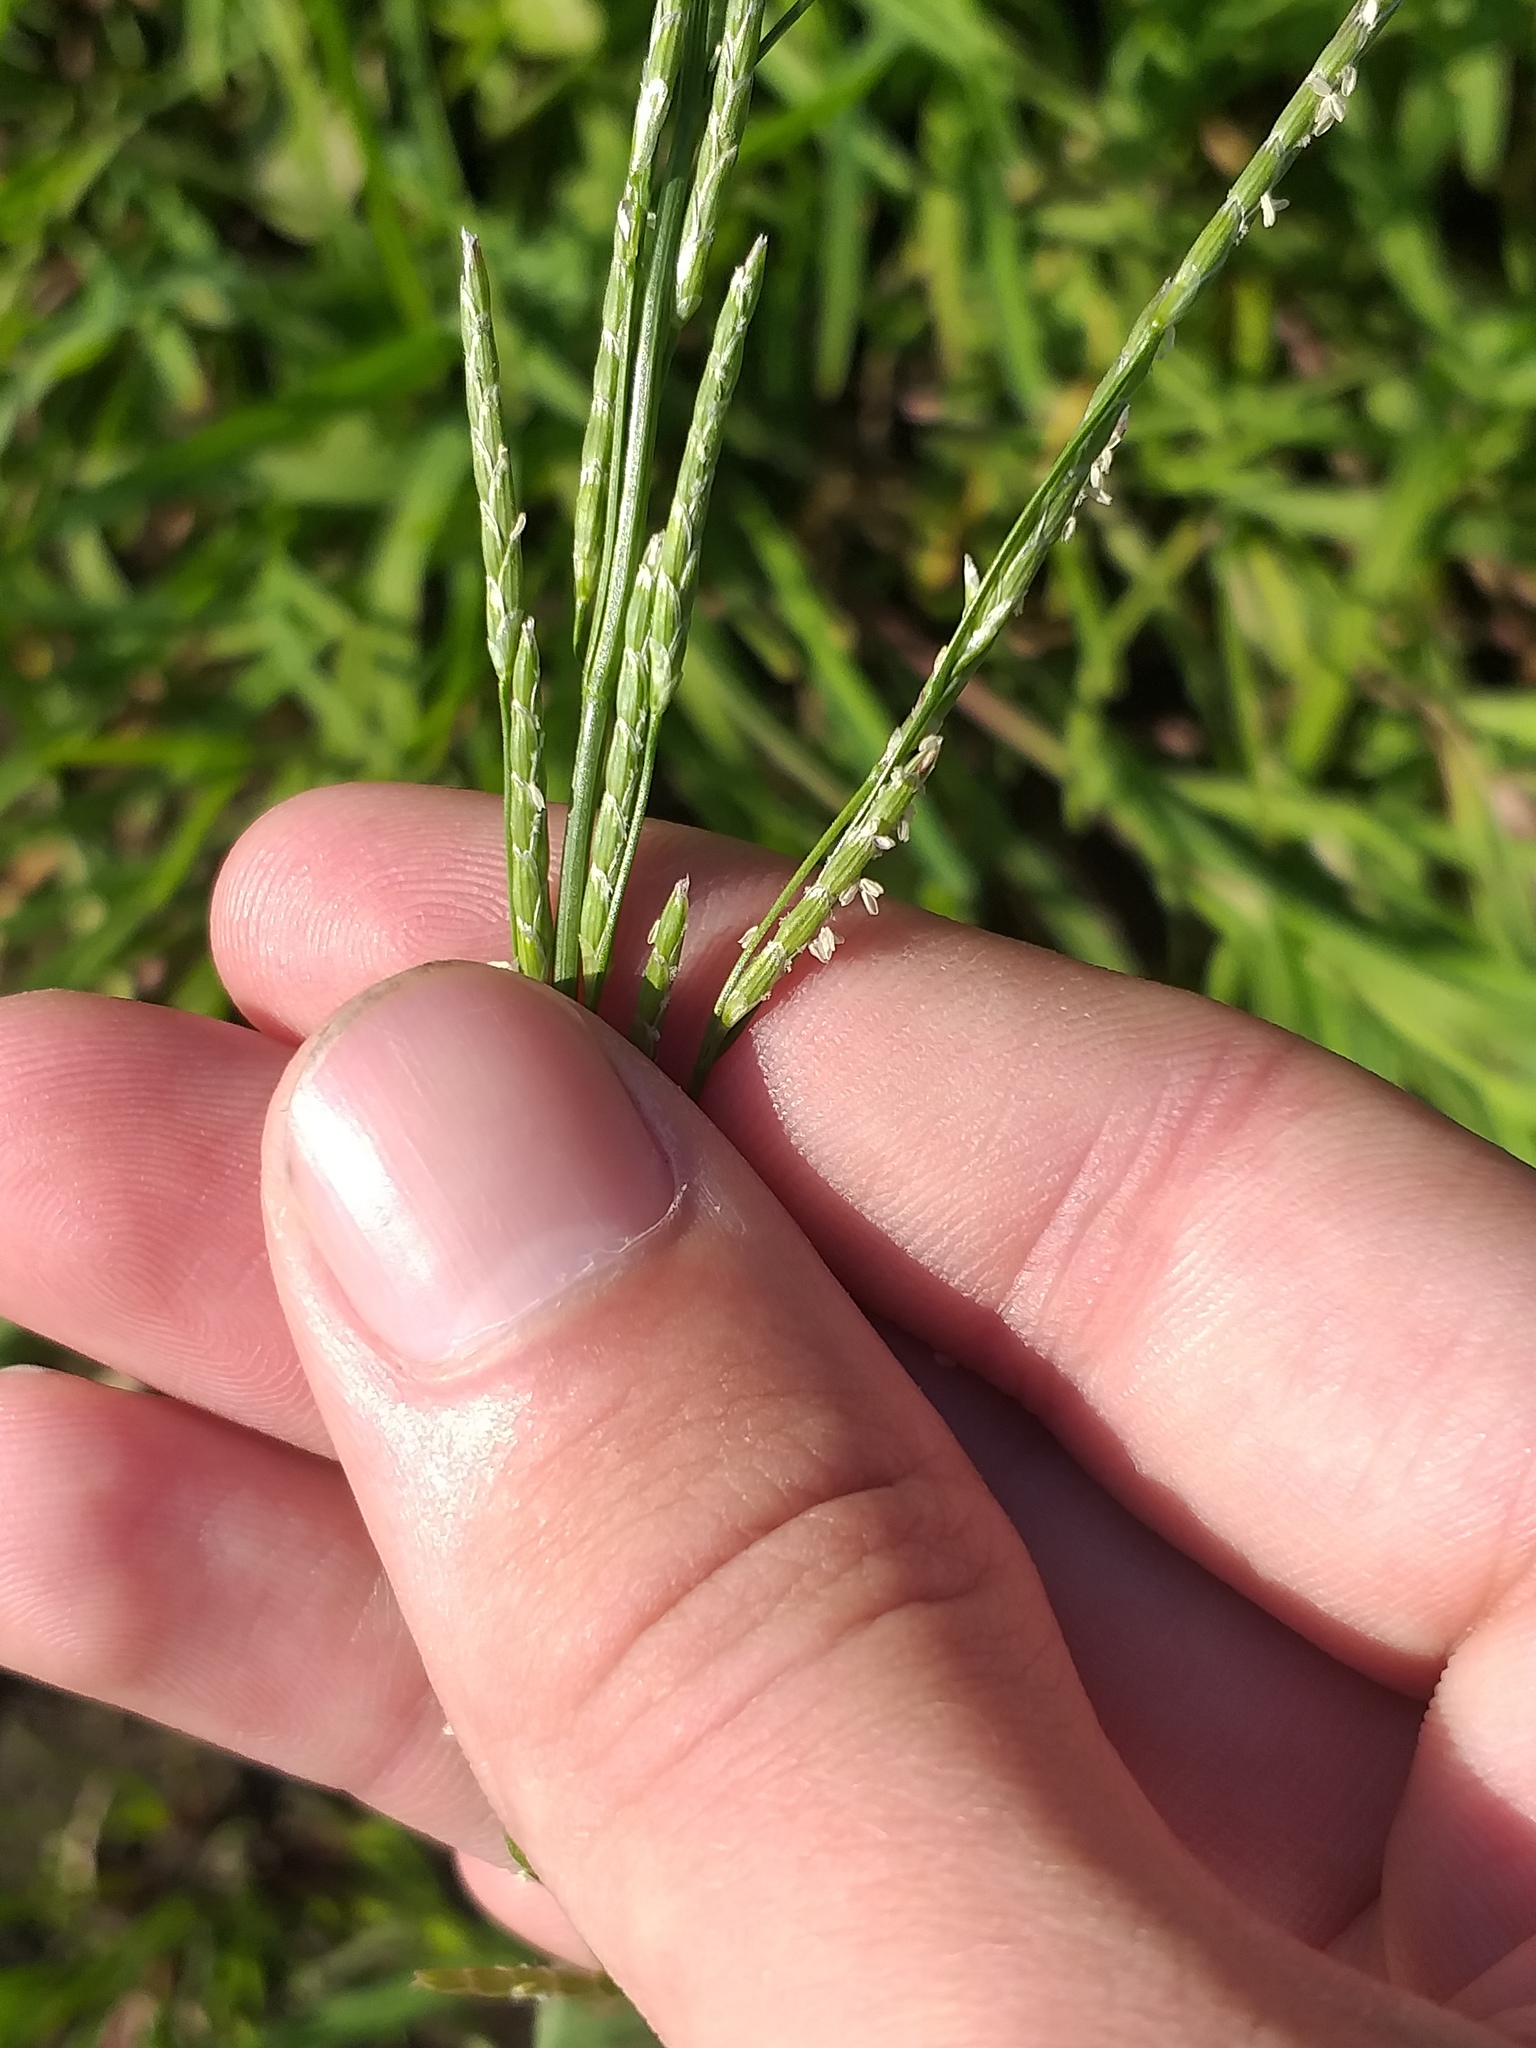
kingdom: Plantae
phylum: Tracheophyta
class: Liliopsida
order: Poales
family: Poaceae
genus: Glyceria
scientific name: Glyceria notata
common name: Plicate sweet-grass
